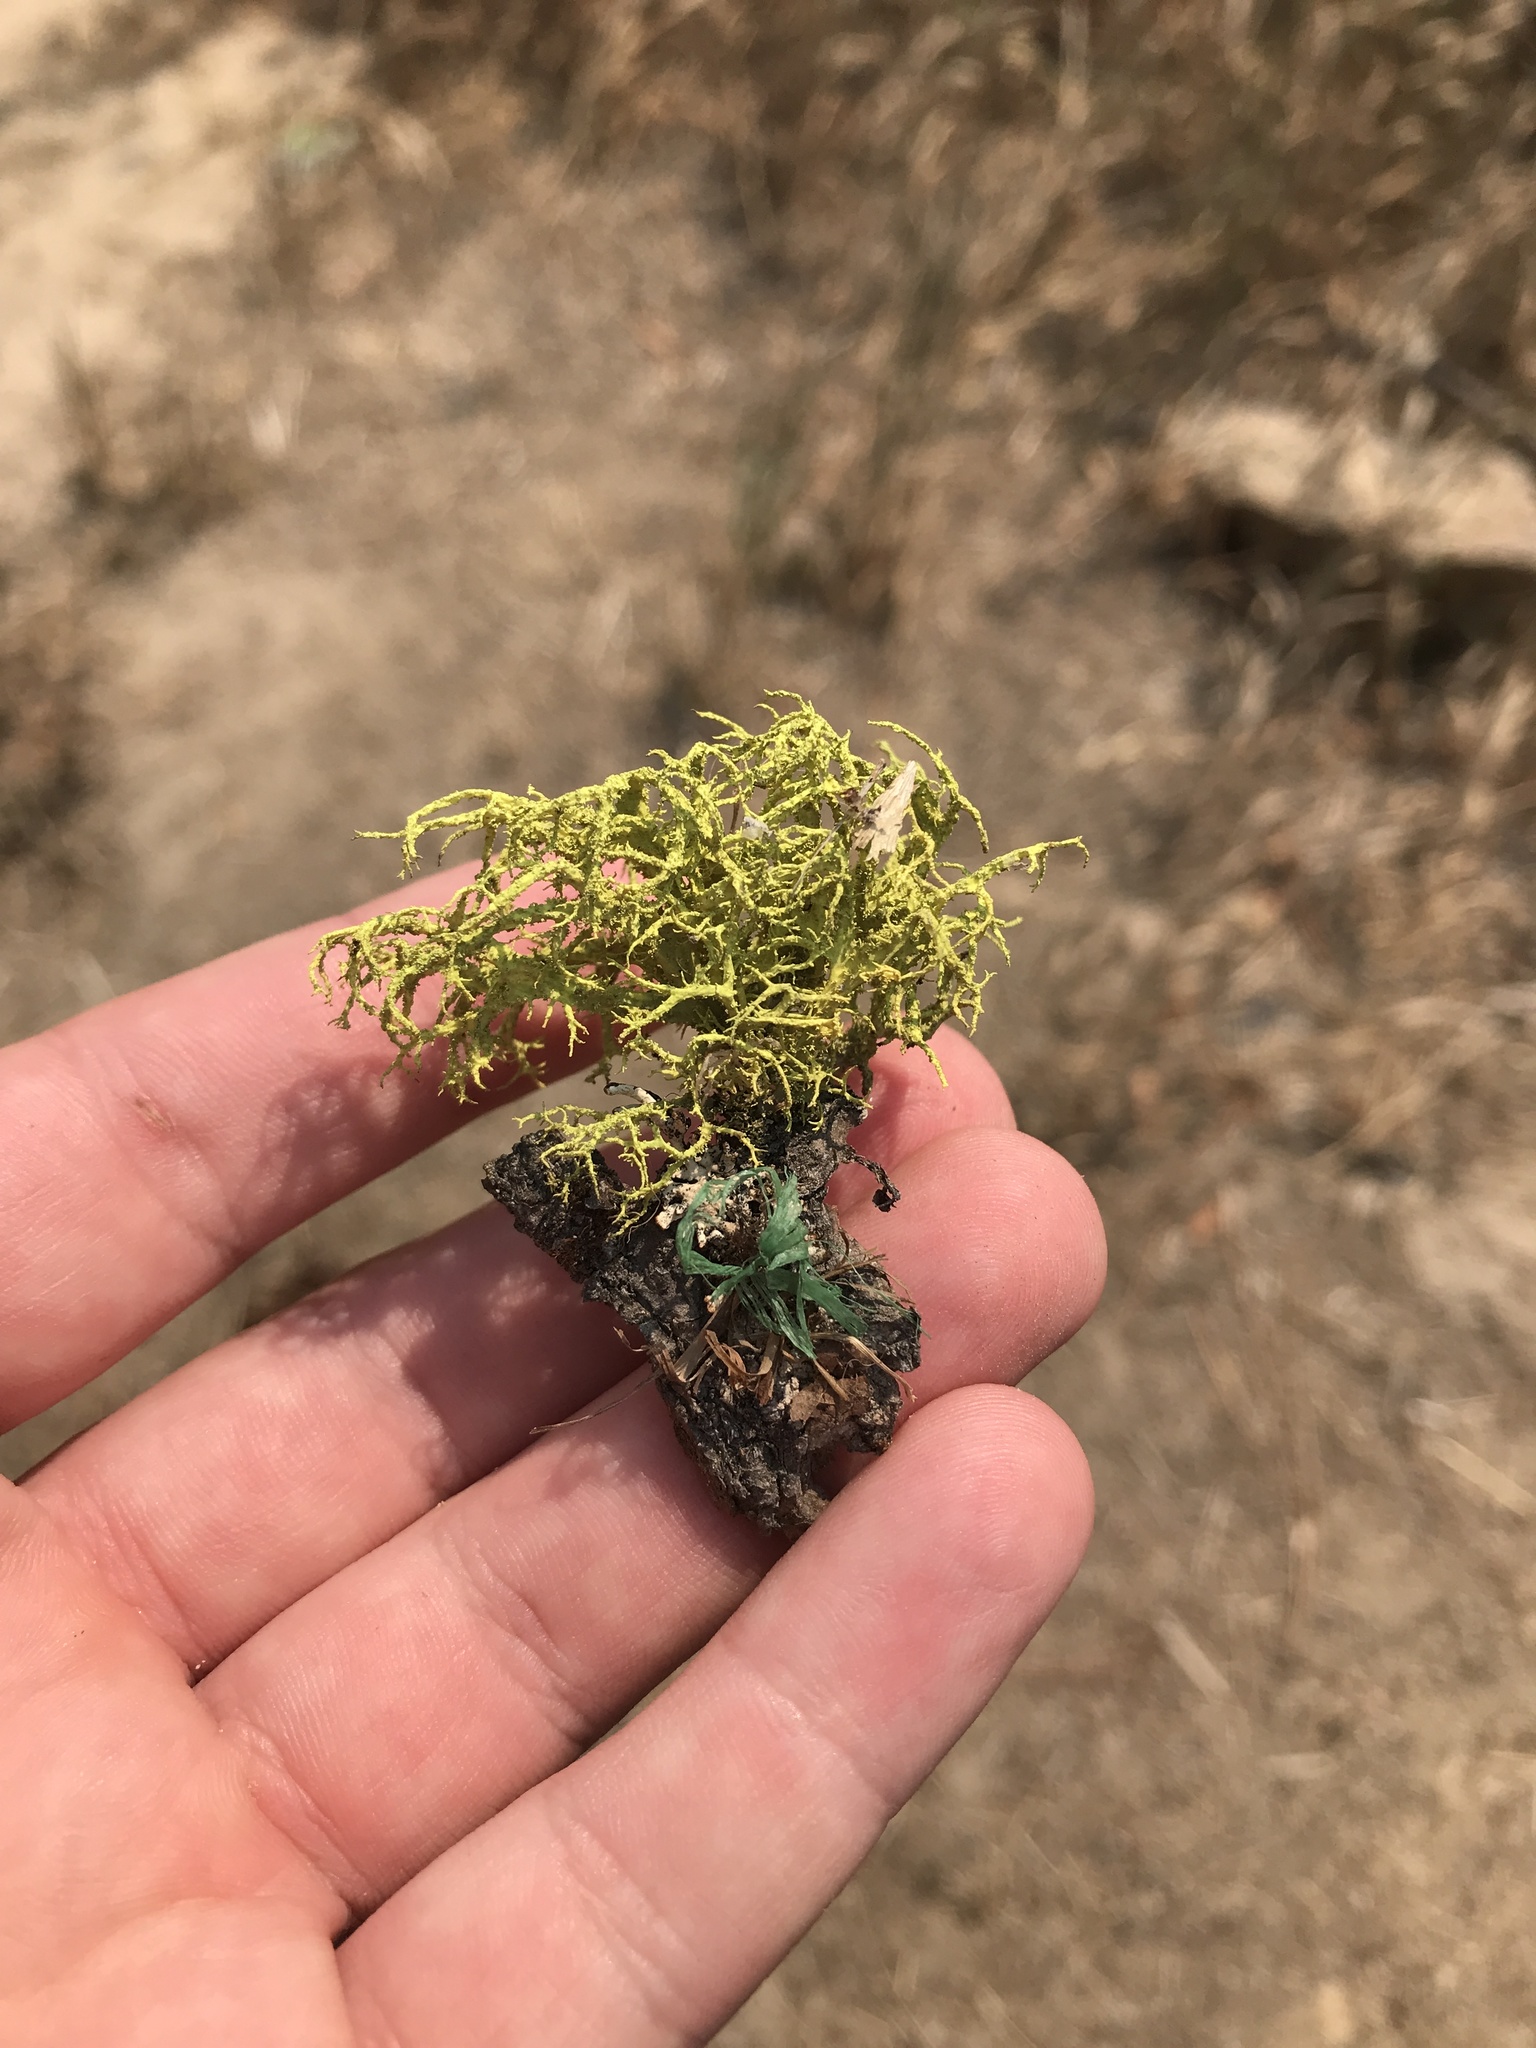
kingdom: Fungi
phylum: Ascomycota
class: Lecanoromycetes
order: Lecanorales
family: Parmeliaceae
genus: Letharia
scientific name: Letharia vulpina
